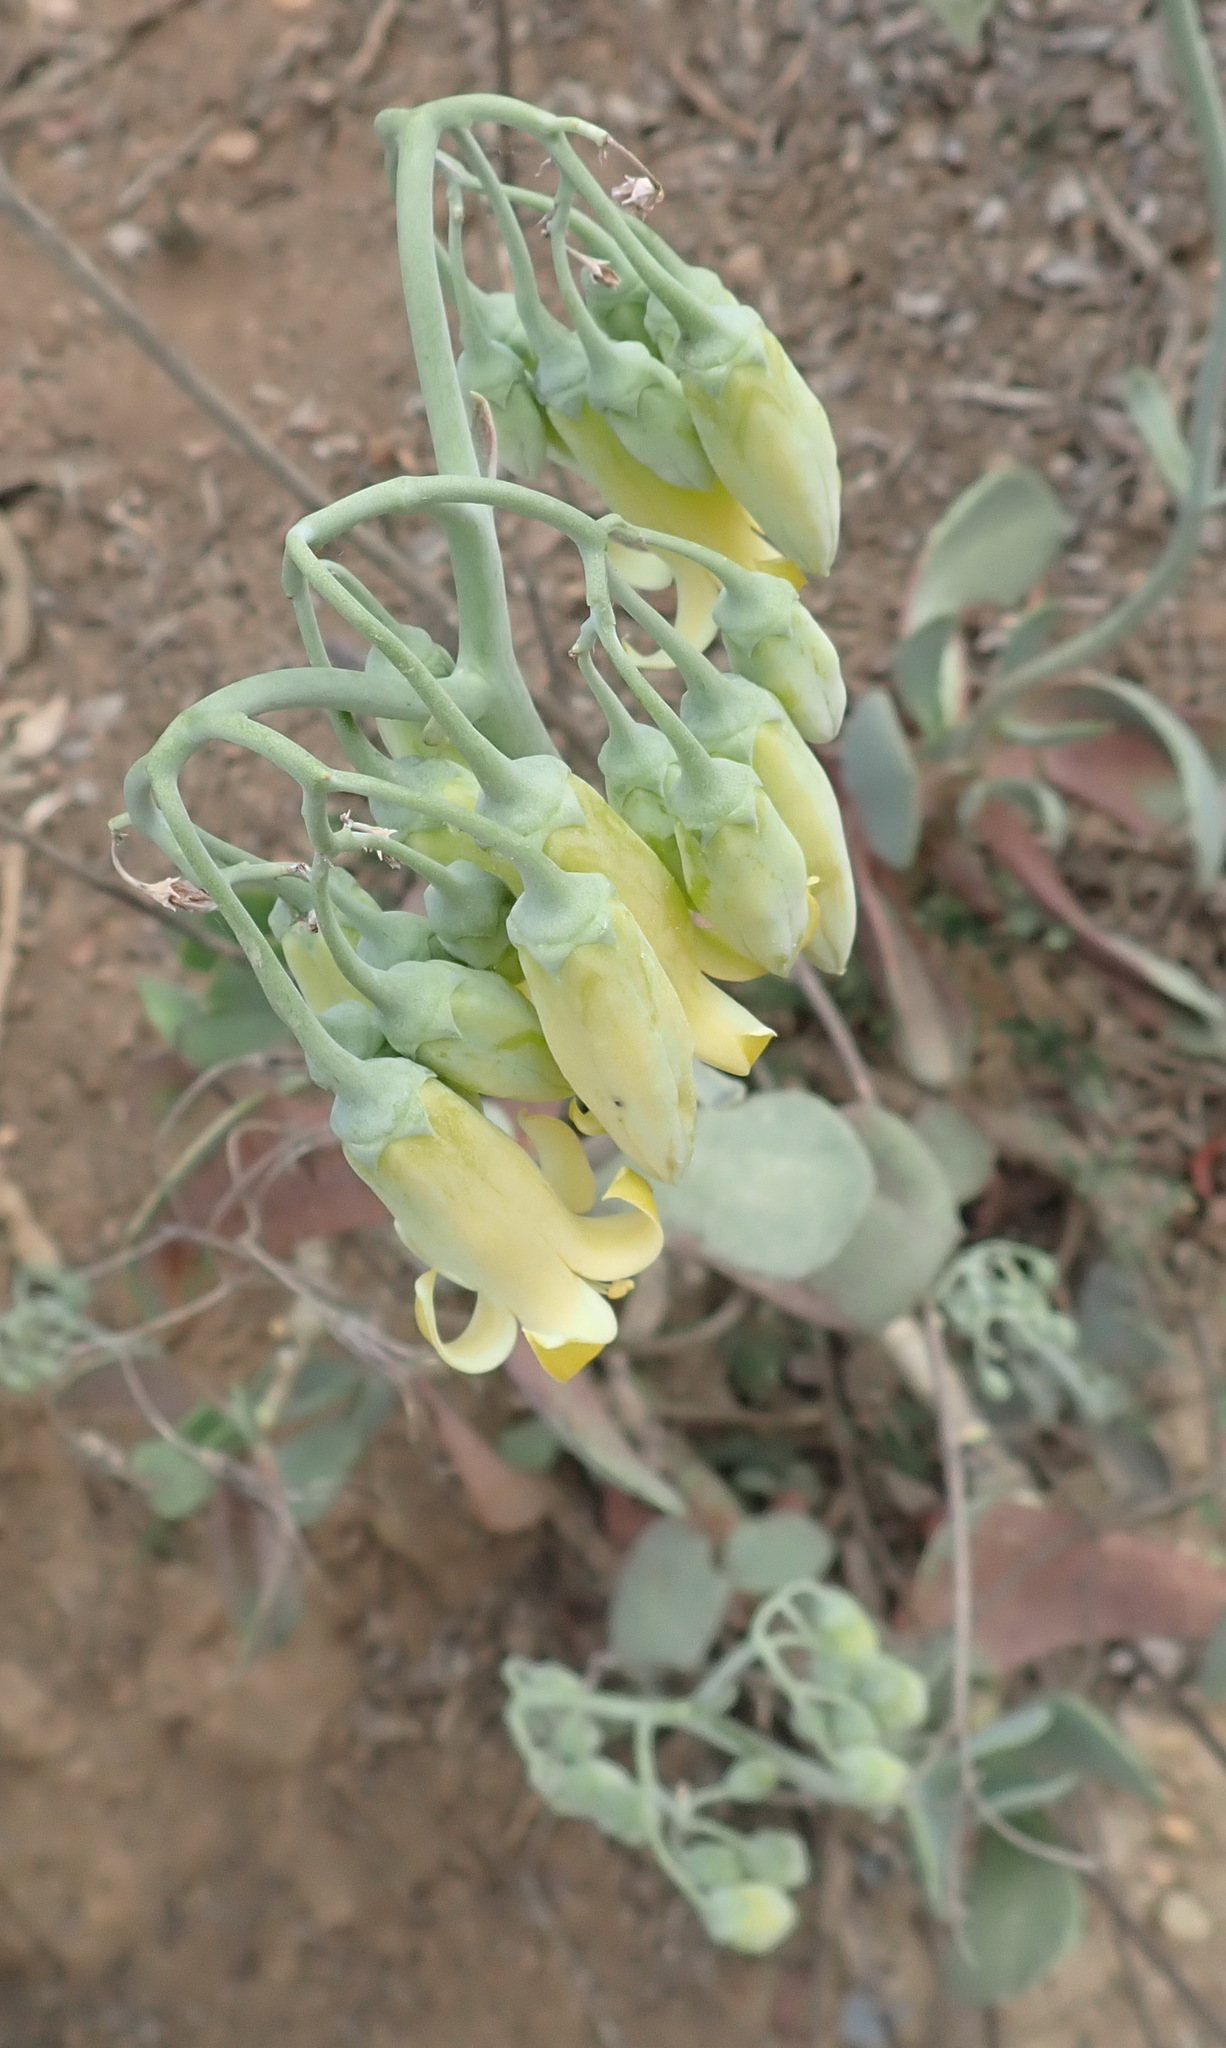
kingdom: Plantae
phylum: Tracheophyta
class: Magnoliopsida
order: Saxifragales
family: Crassulaceae
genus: Cotyledon
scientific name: Cotyledon orbiculata
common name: Pig's ear
